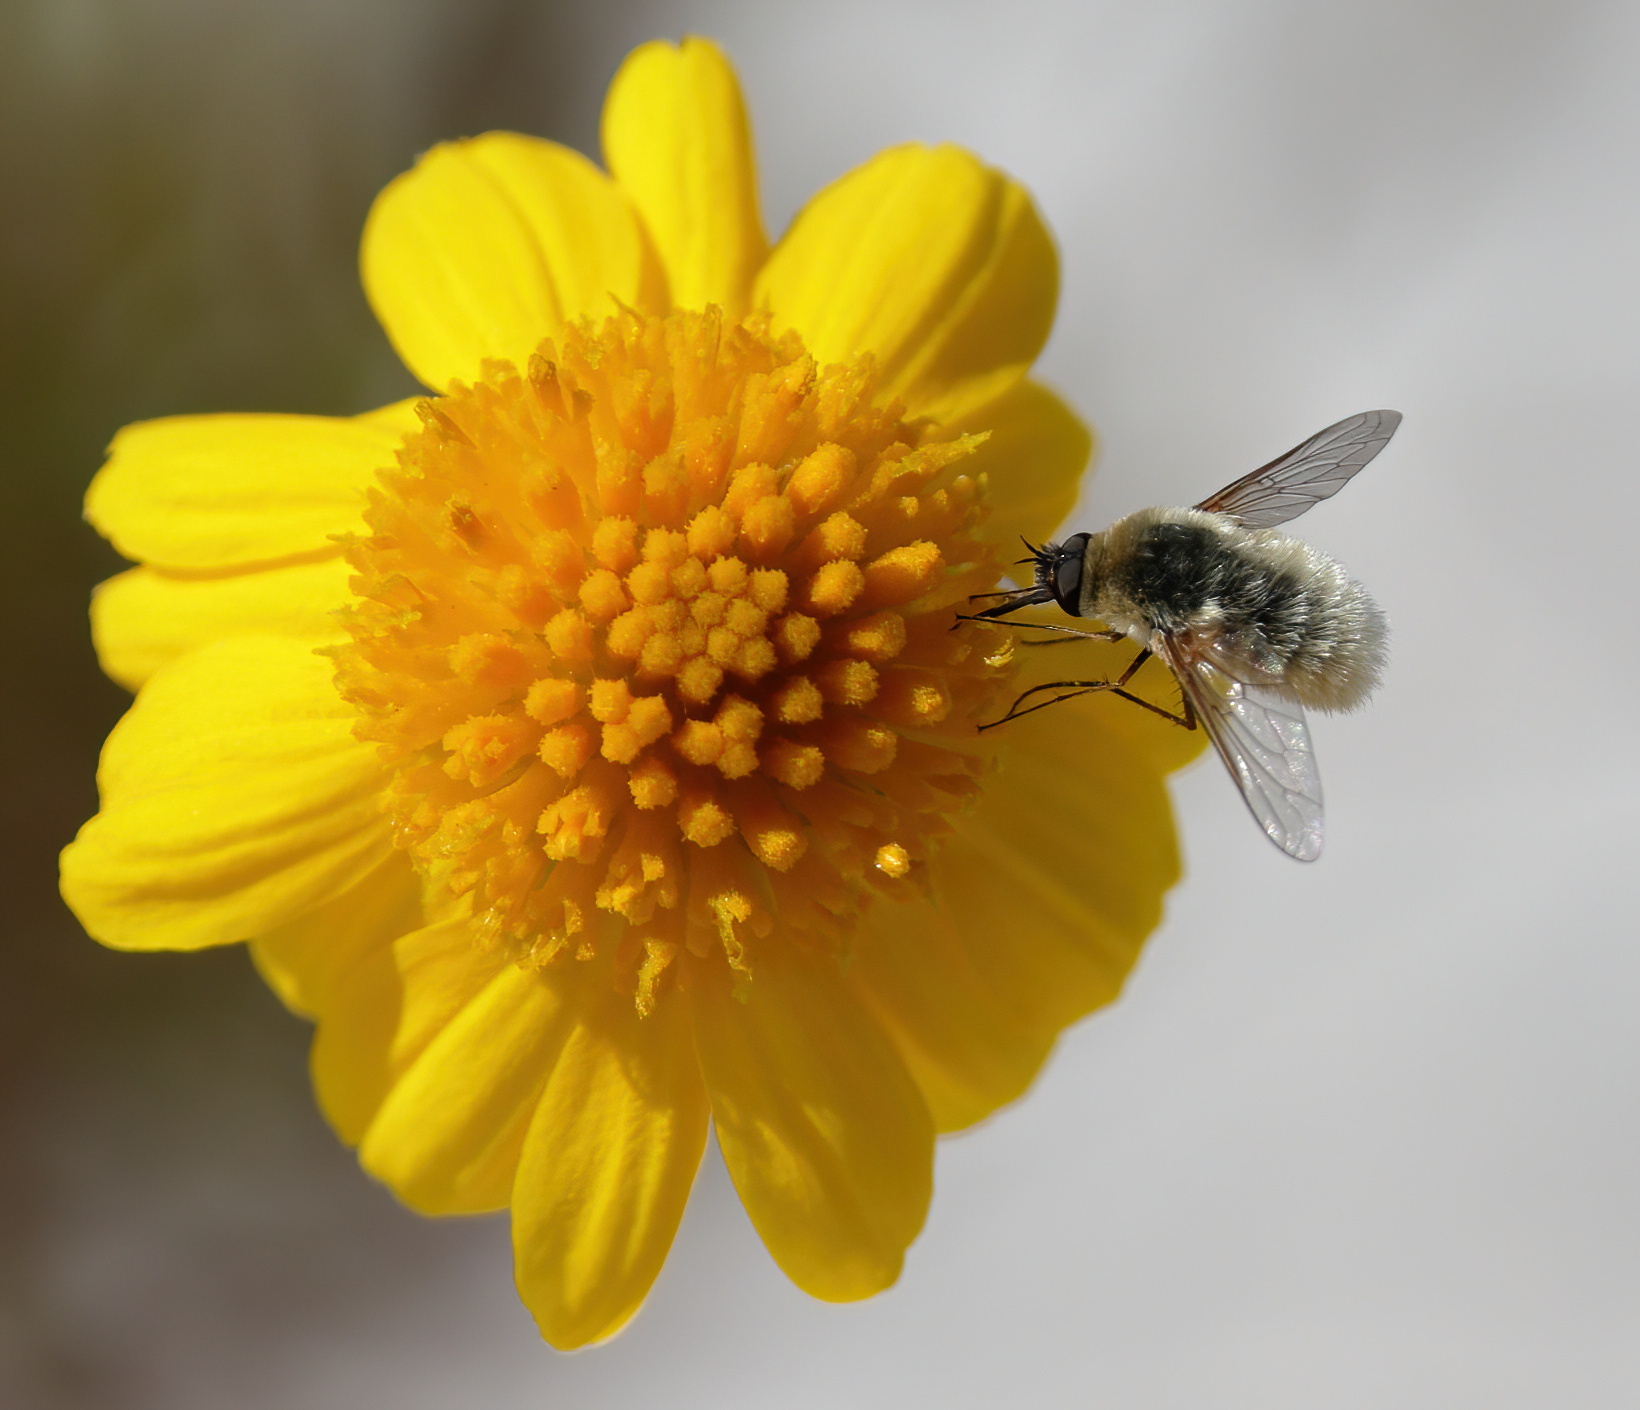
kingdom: Animalia
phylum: Arthropoda
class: Insecta
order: Diptera
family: Bombyliidae
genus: Systoechus
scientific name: Systoechus candidulus
